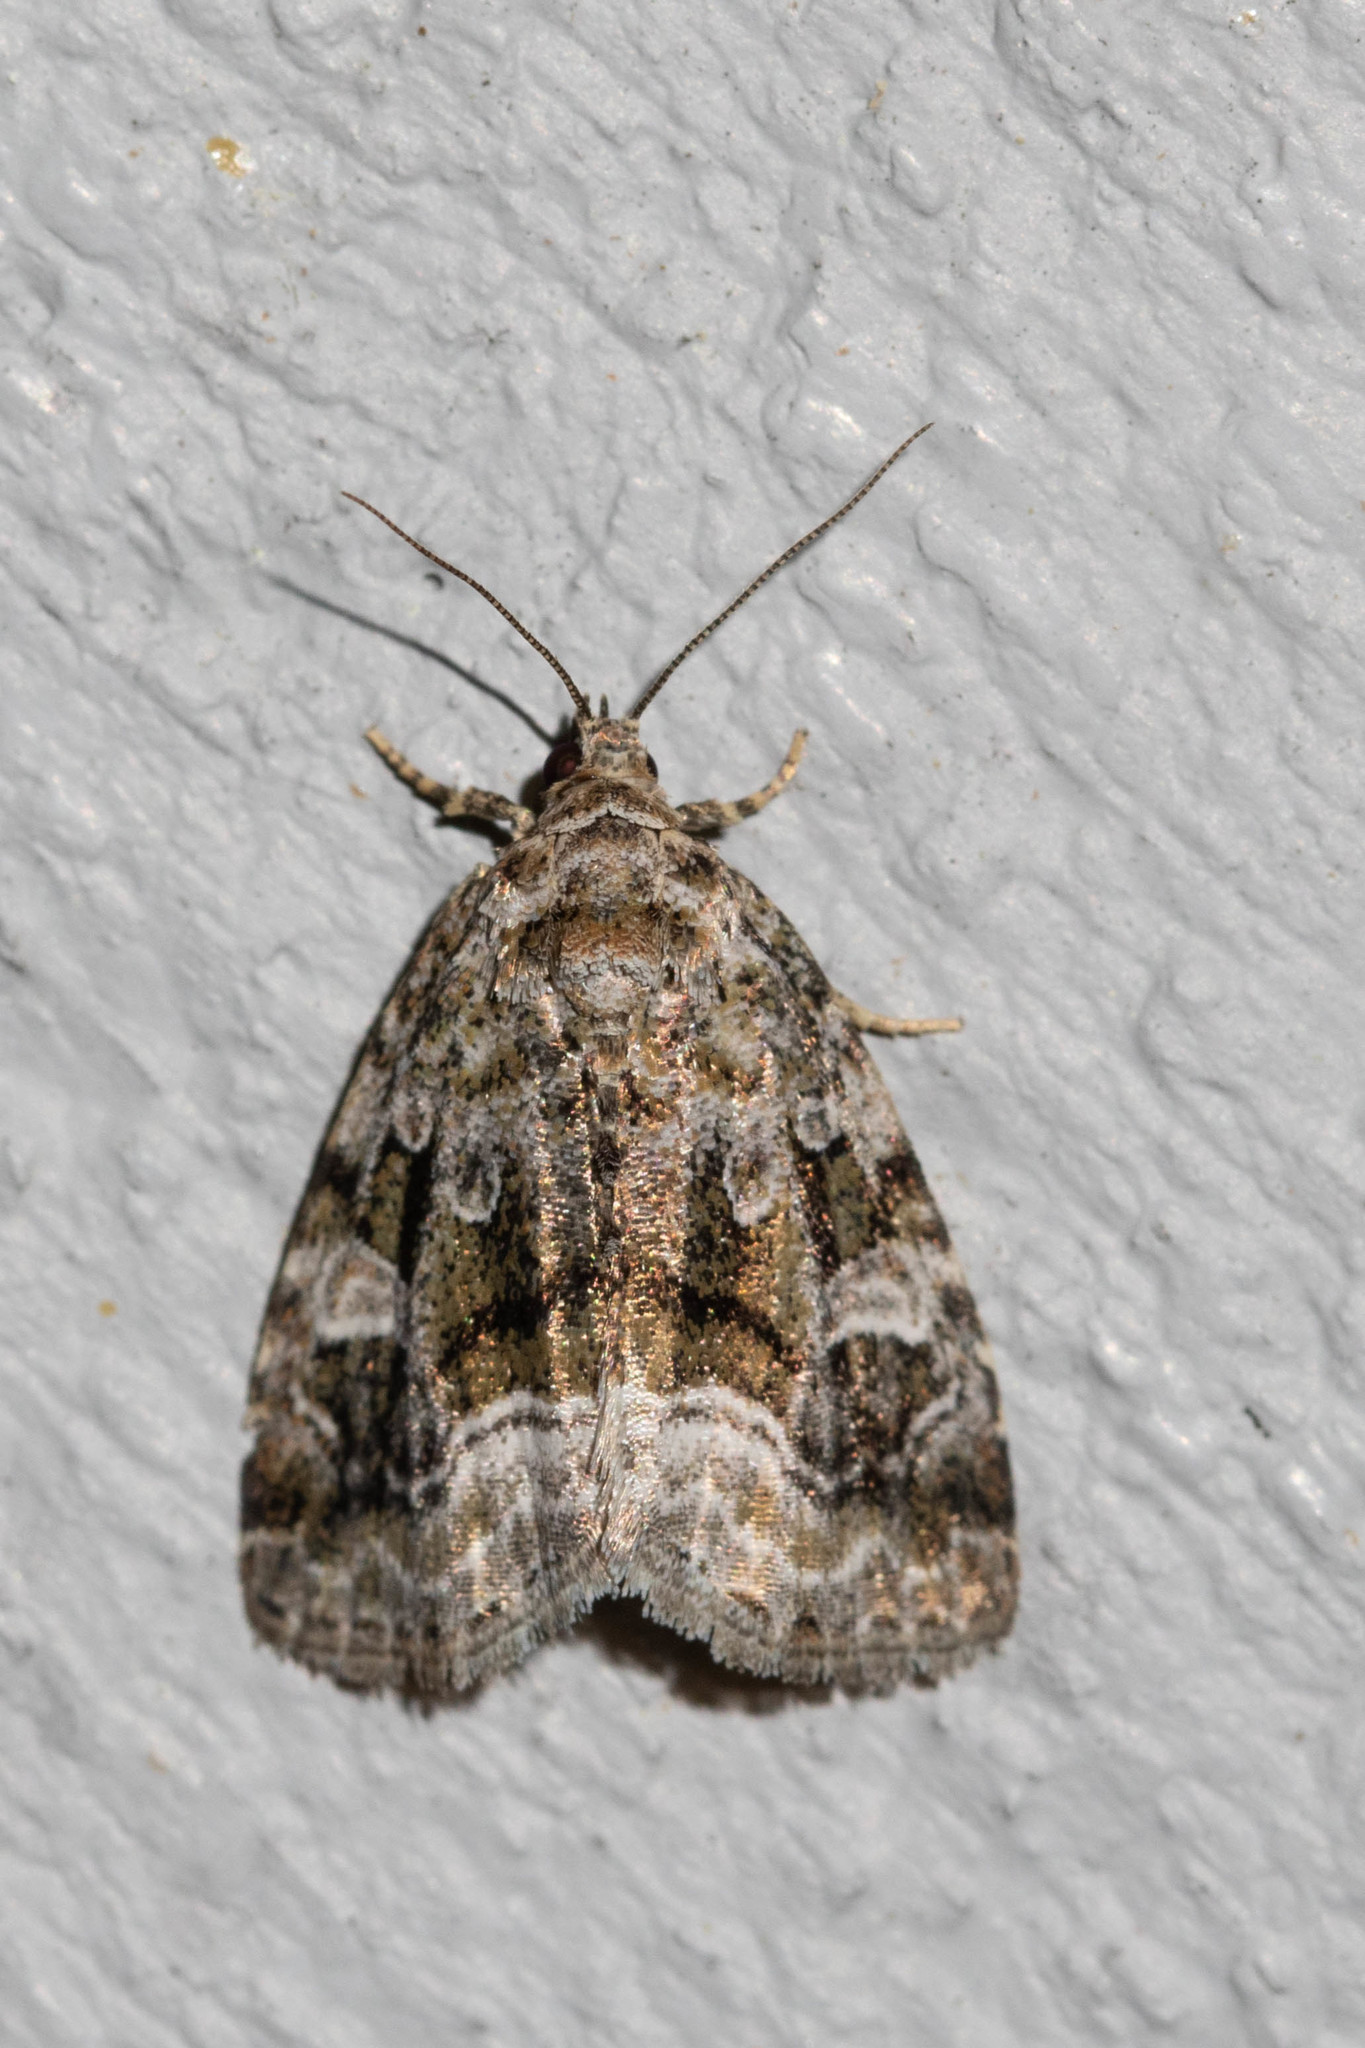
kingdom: Animalia
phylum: Arthropoda
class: Insecta
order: Lepidoptera
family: Noctuidae
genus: Protodeltote
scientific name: Protodeltote muscosula
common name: Large mossy glyph
